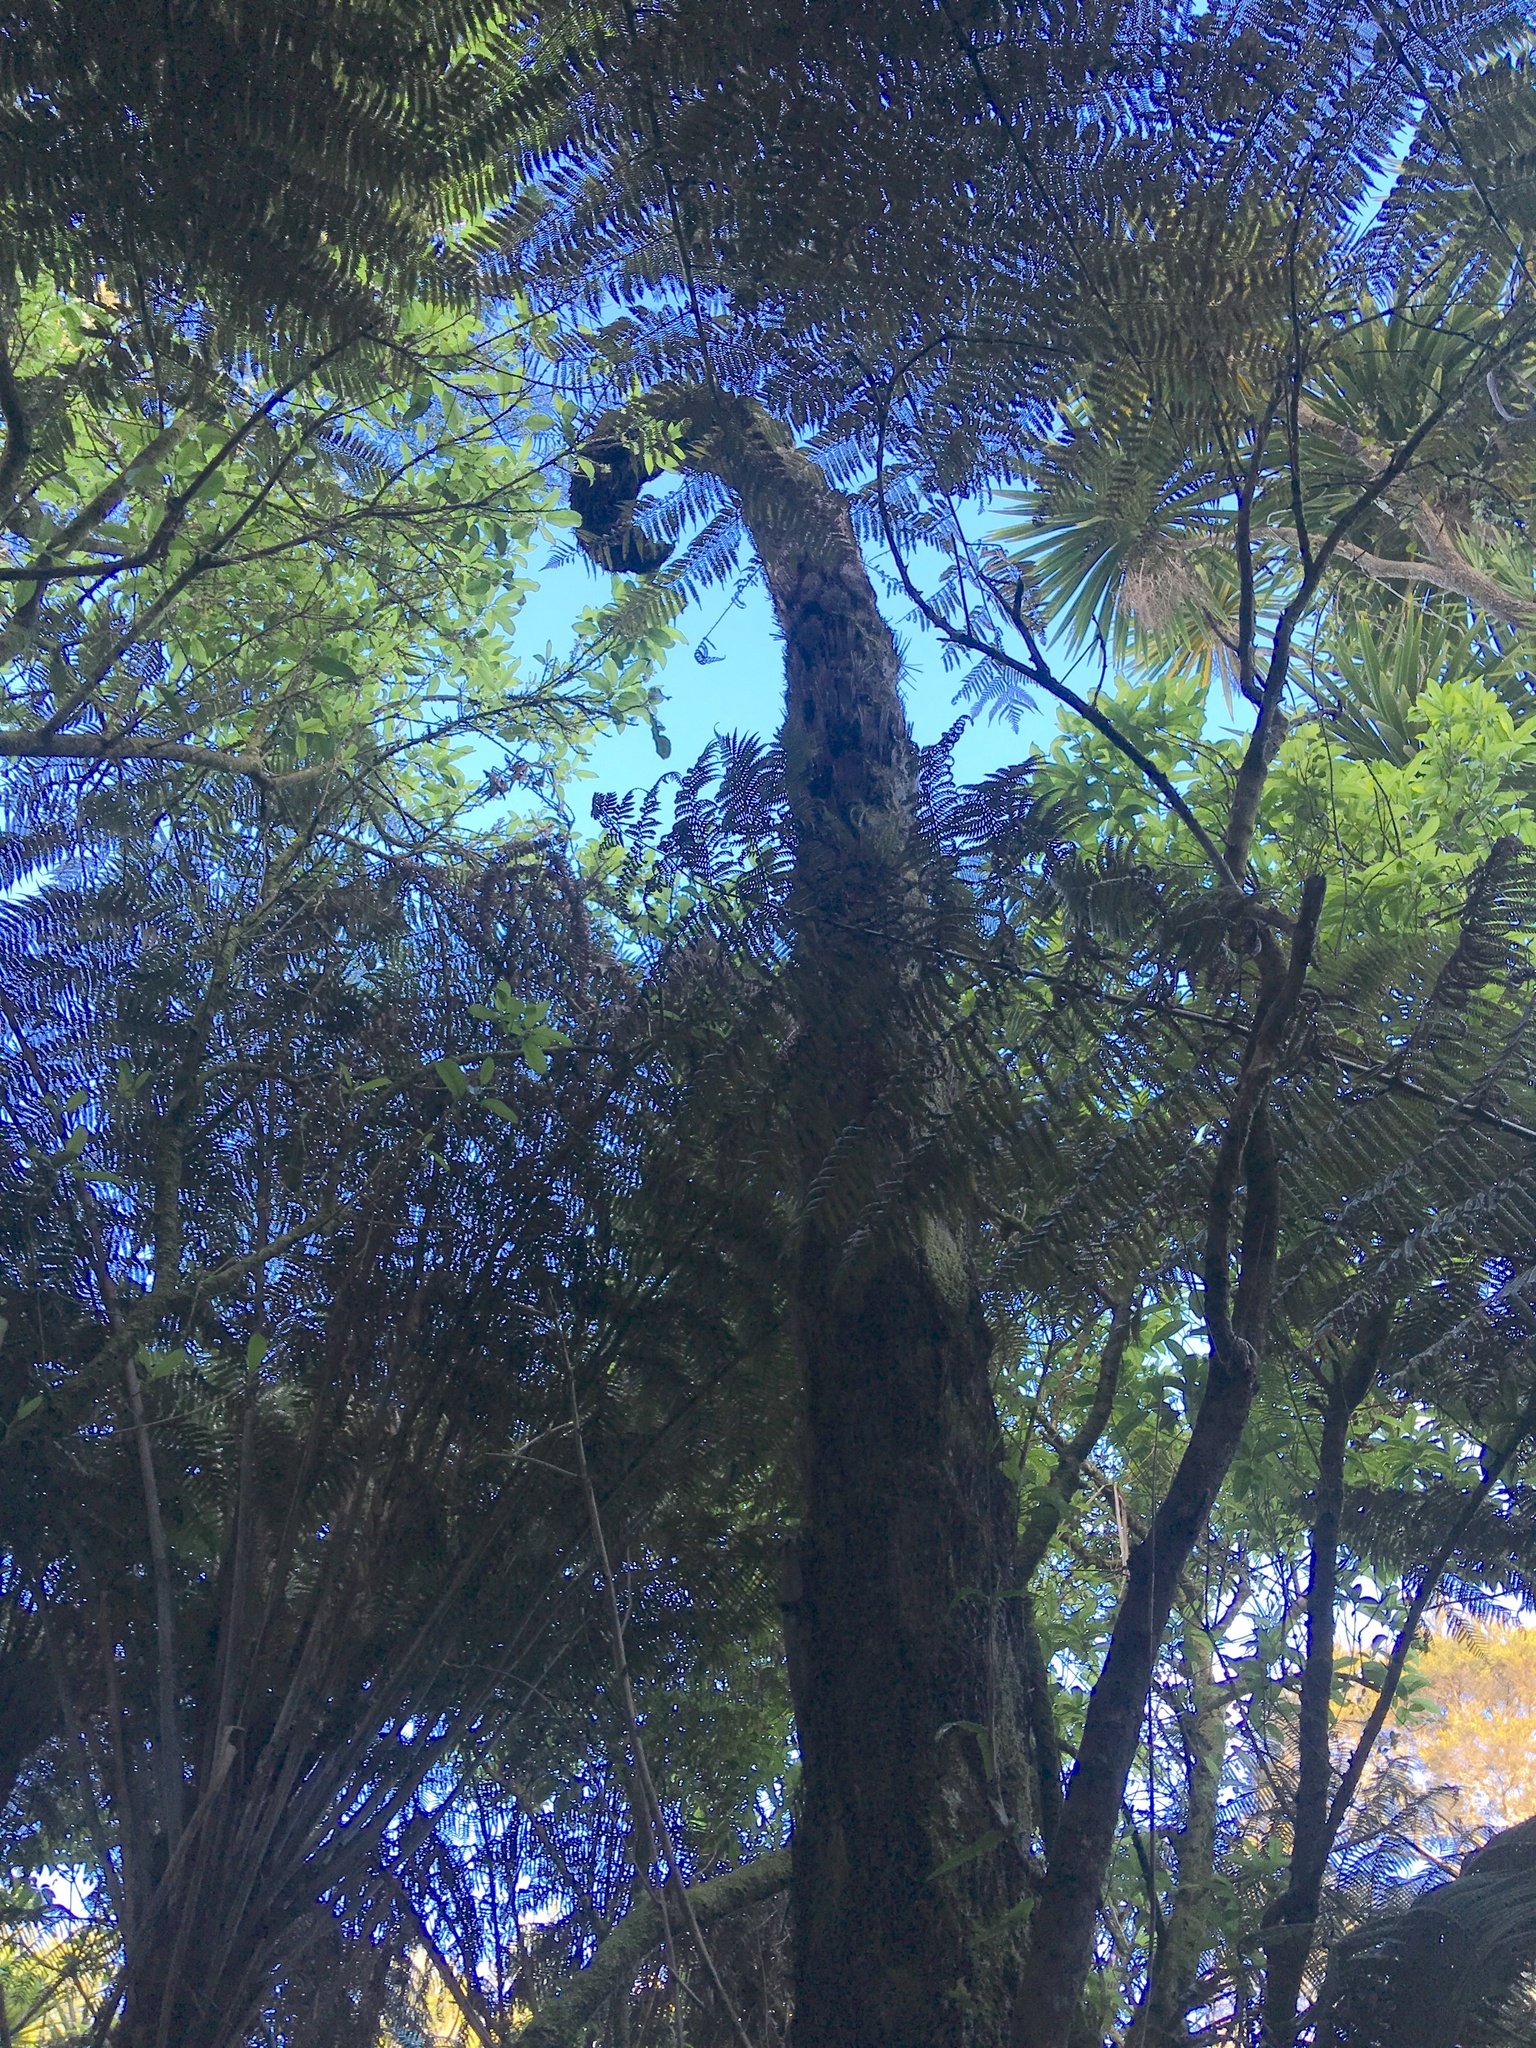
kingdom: Plantae
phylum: Tracheophyta
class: Polypodiopsida
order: Cyatheales
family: Cyatheaceae
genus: Sphaeropteris
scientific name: Sphaeropteris medullaris
